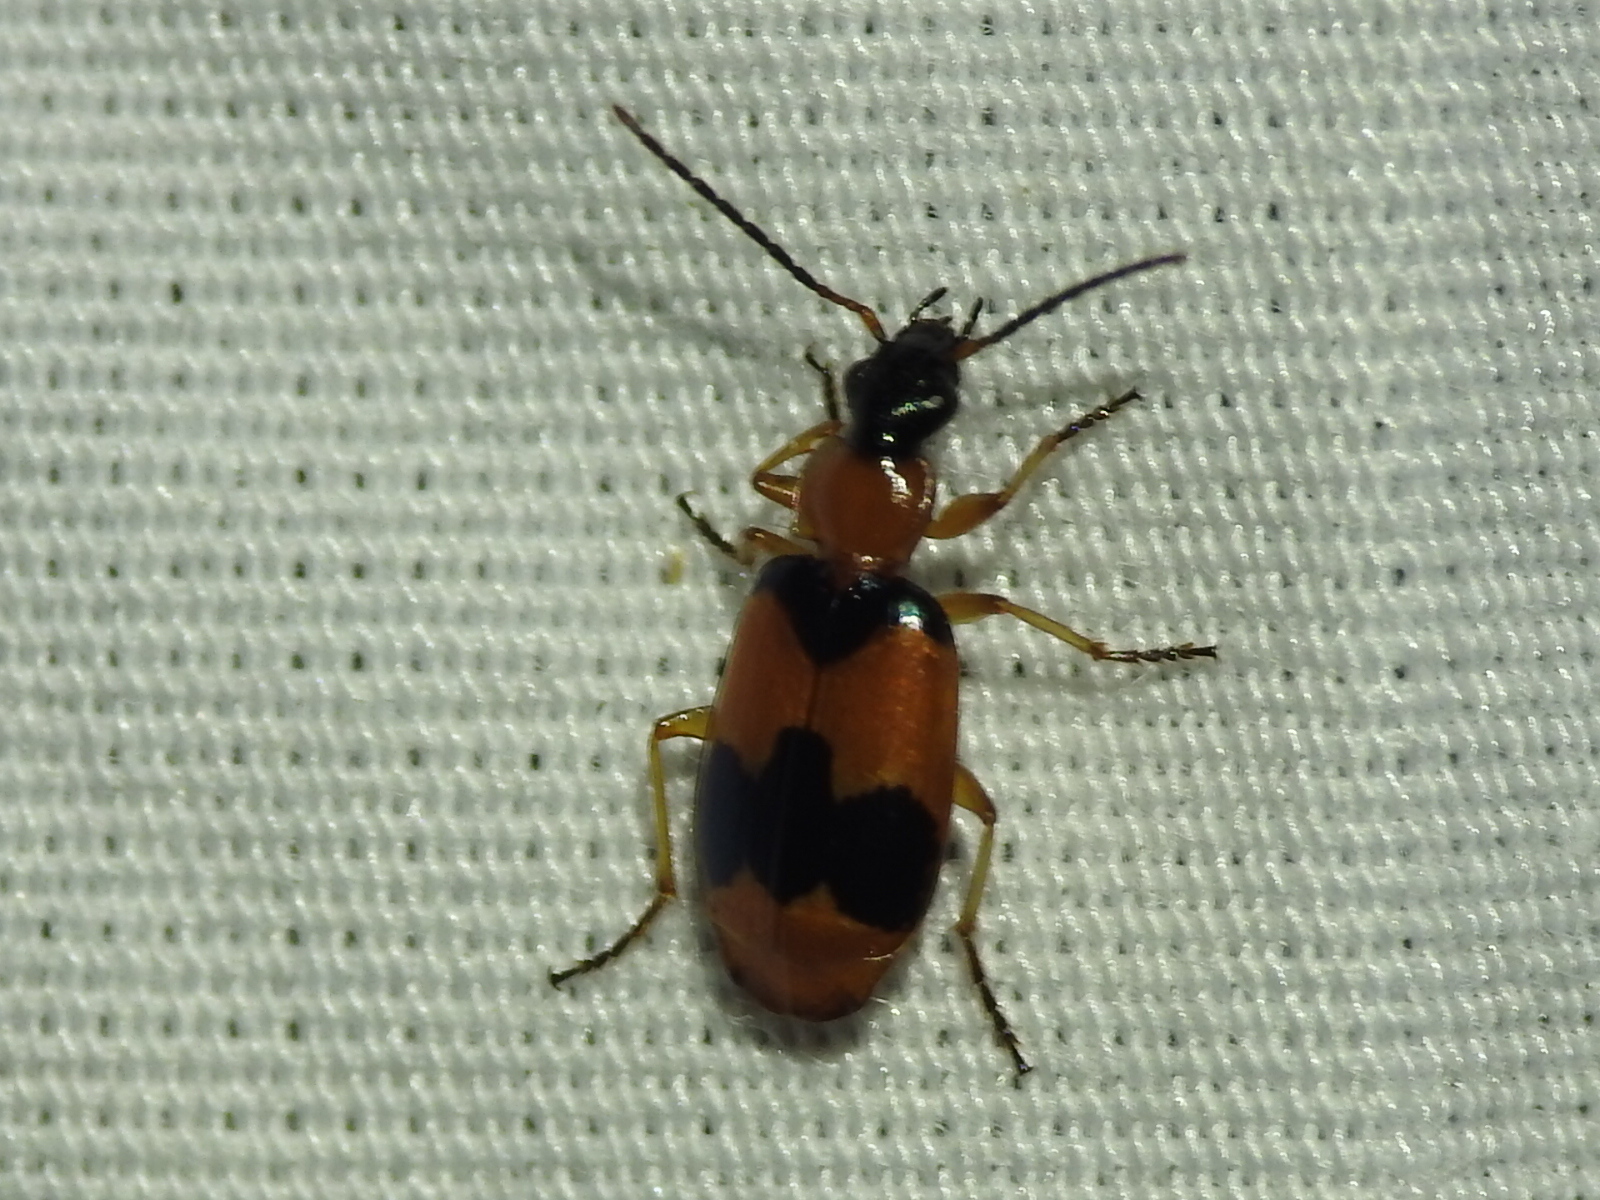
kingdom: Animalia
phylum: Arthropoda
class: Insecta
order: Coleoptera
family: Carabidae
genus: Lebia
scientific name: Lebia pulchella
